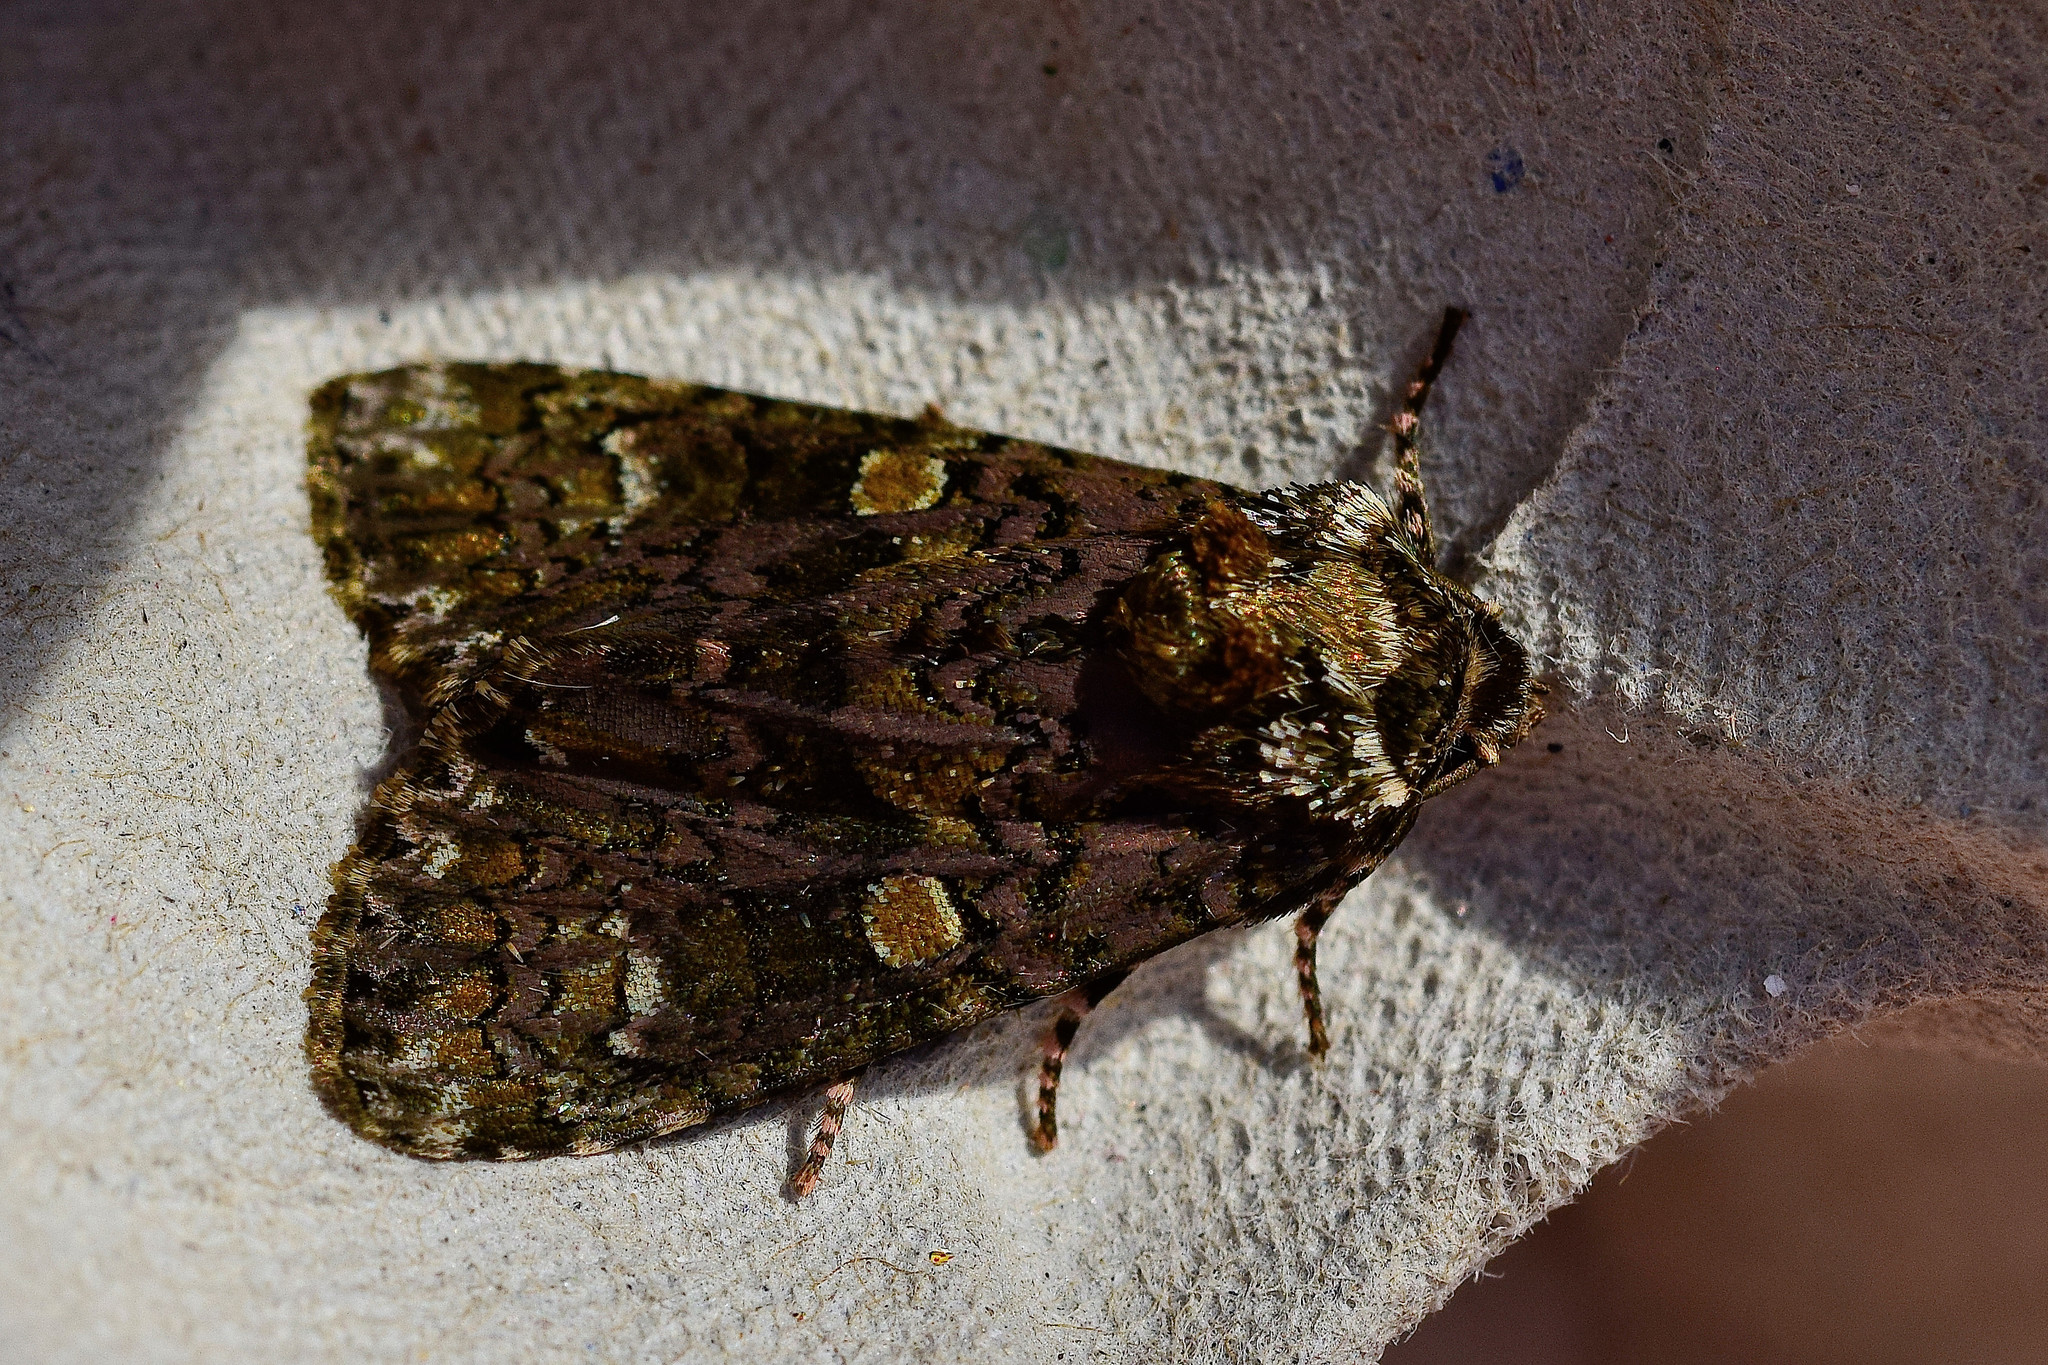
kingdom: Animalia
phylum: Arthropoda
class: Insecta
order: Lepidoptera
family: Noctuidae
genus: Craniophora
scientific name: Craniophora ligustri
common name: Coronet
